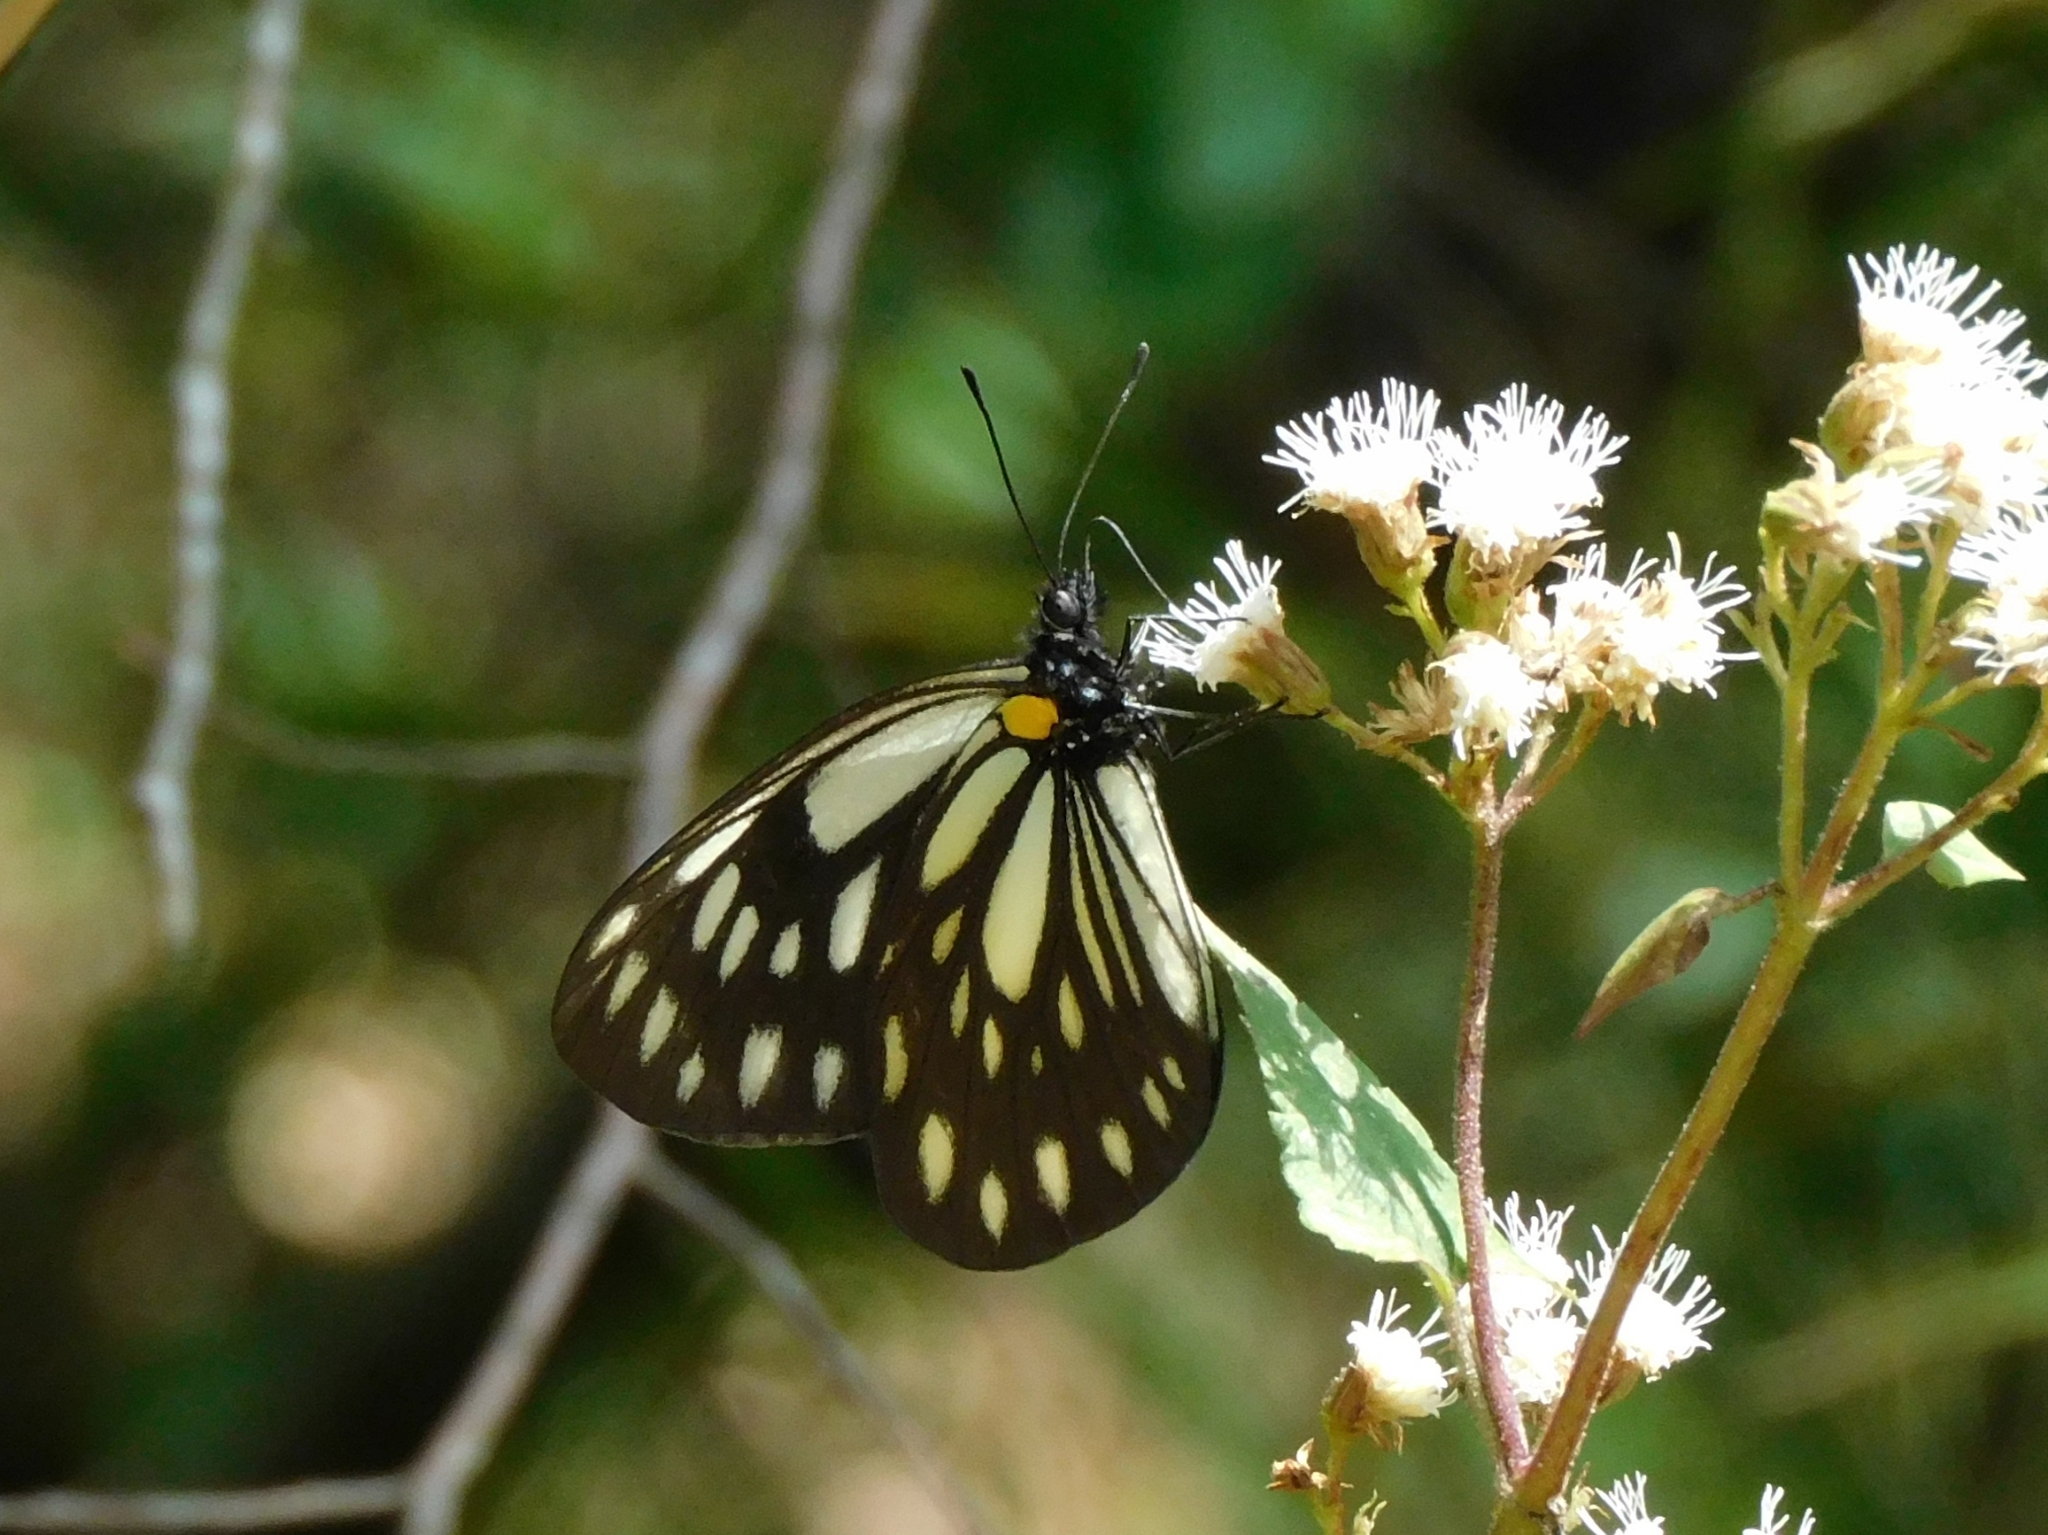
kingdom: Animalia
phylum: Arthropoda
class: Insecta
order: Lepidoptera
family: Pieridae
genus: Aporia
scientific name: Aporia agathon
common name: Great blackvein
